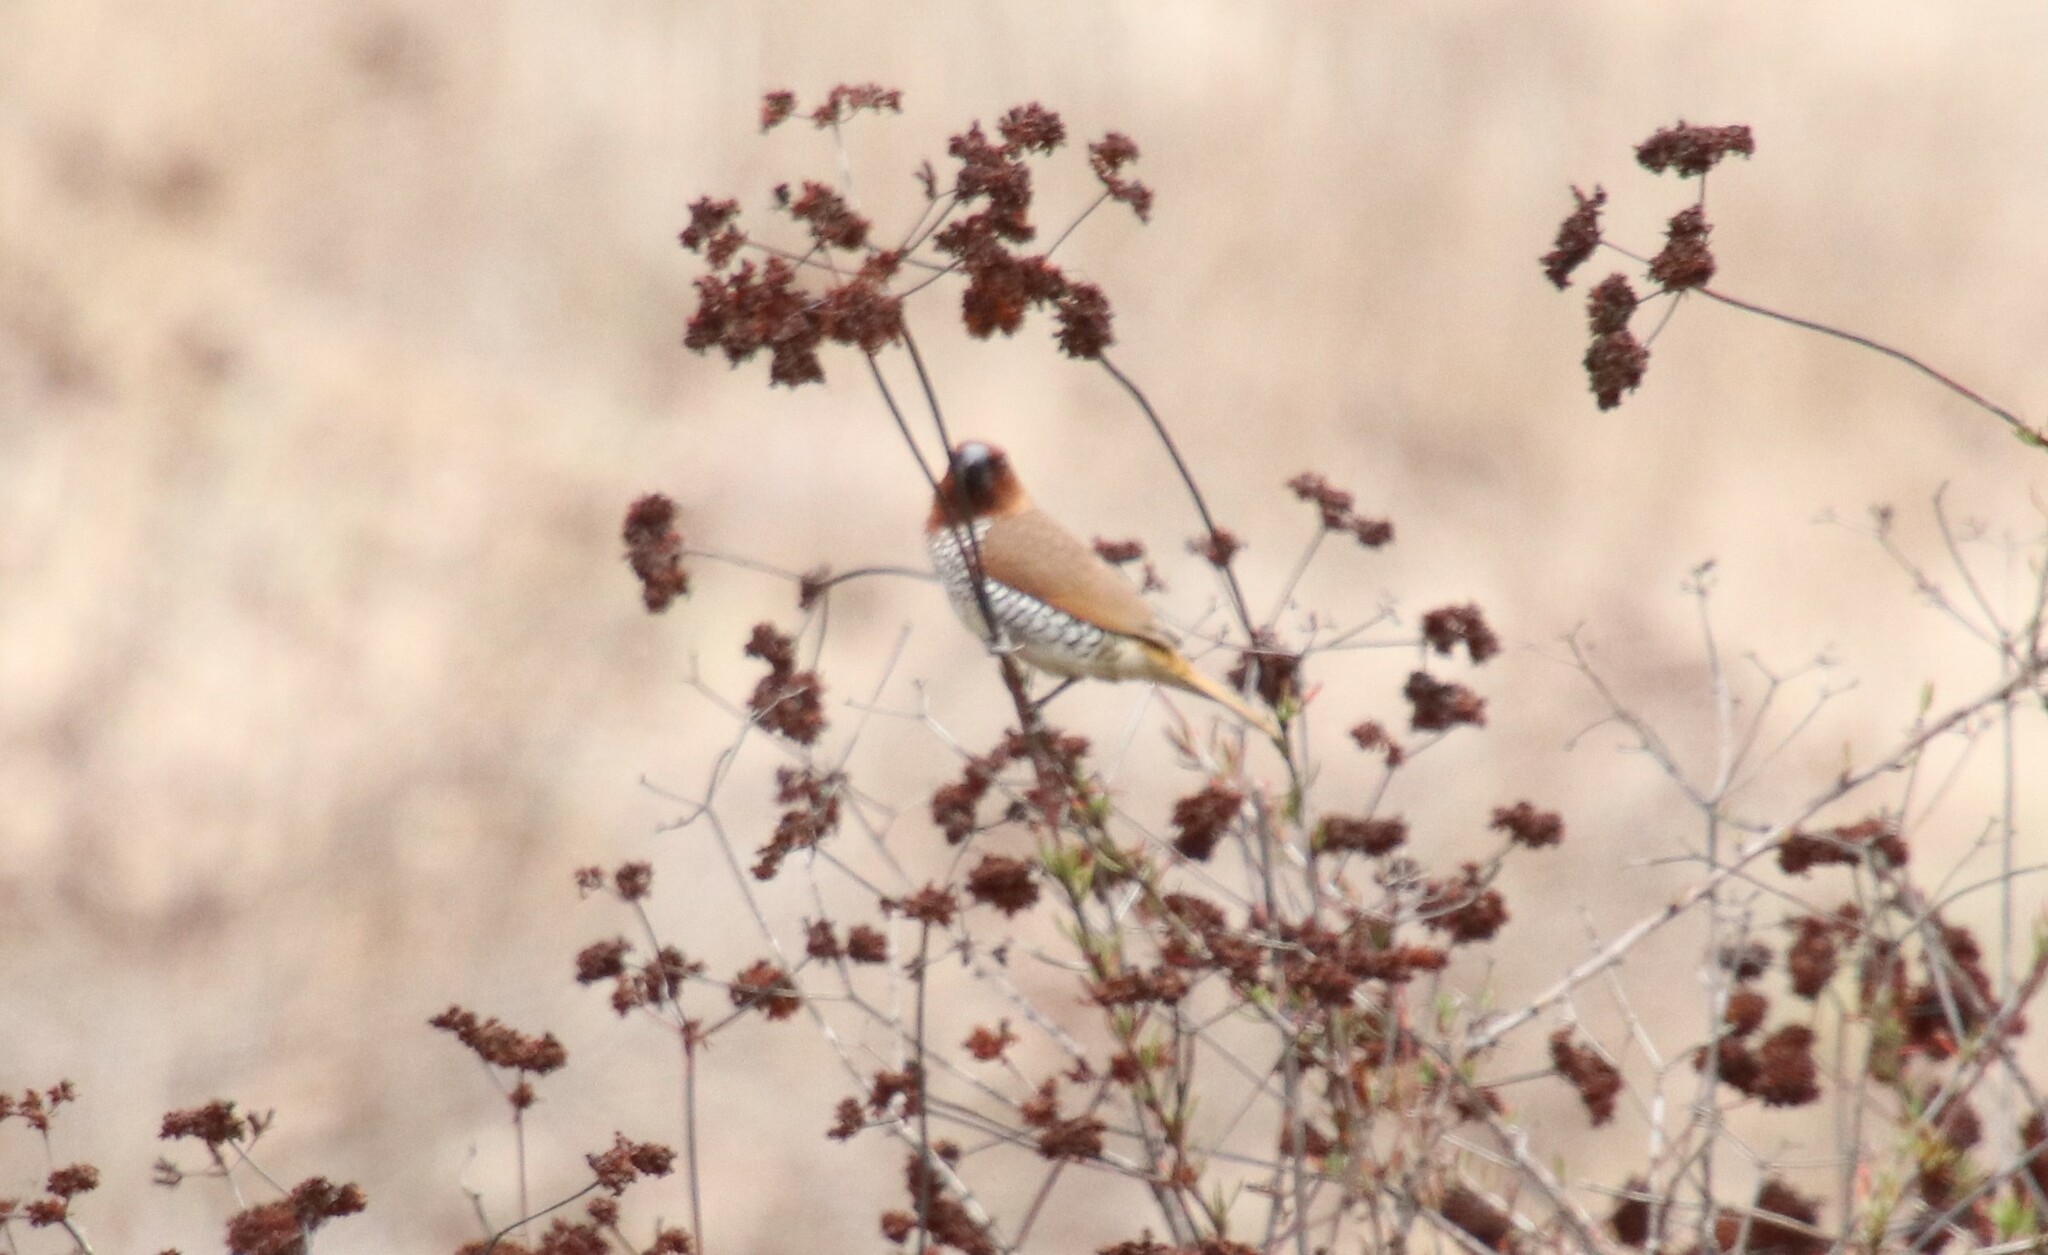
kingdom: Animalia
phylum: Chordata
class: Aves
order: Passeriformes
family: Estrildidae
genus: Lonchura
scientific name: Lonchura punctulata
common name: Scaly-breasted munia
